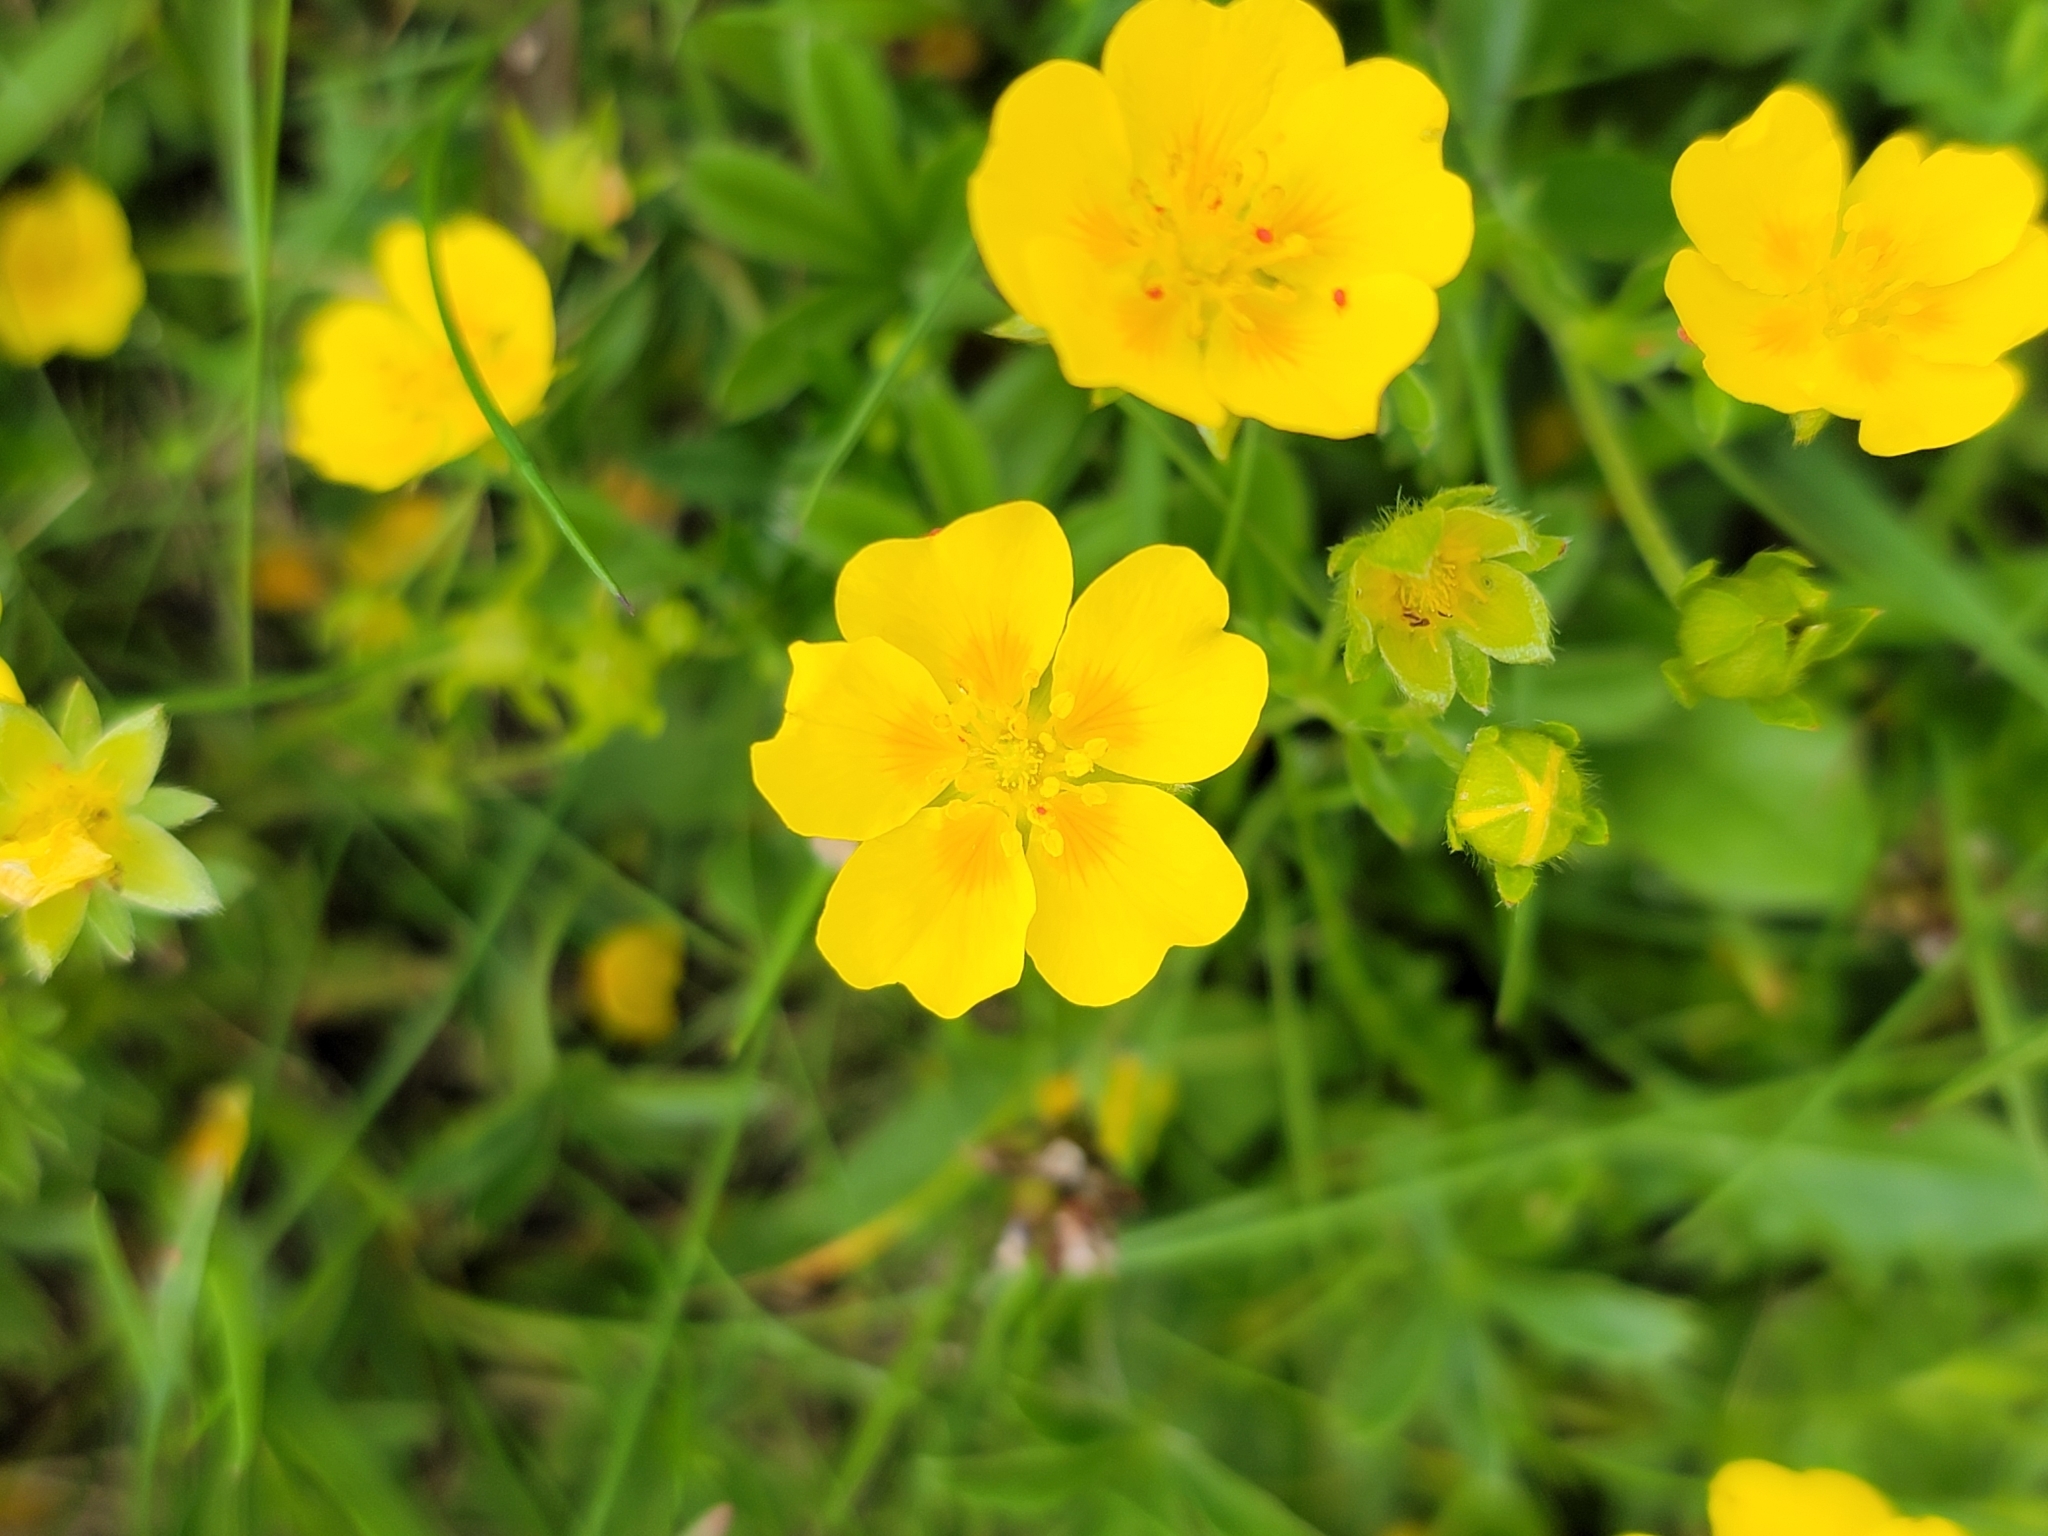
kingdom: Plantae
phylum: Tracheophyta
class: Magnoliopsida
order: Rosales
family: Rosaceae
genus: Potentilla
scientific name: Potentilla aurea
